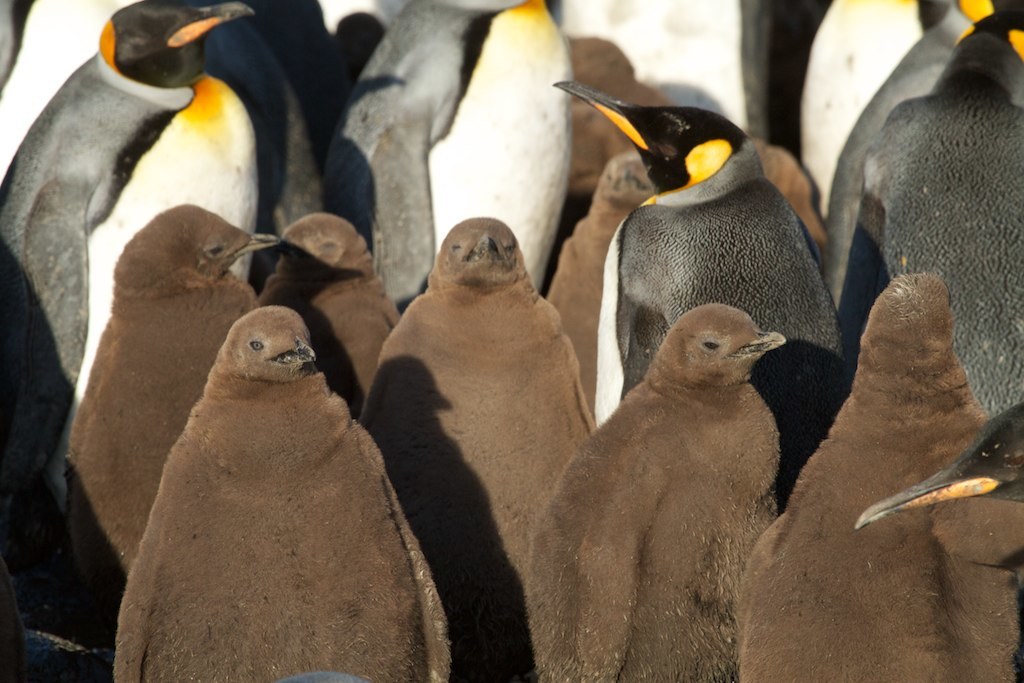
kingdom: Animalia
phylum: Chordata
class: Aves
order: Sphenisciformes
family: Spheniscidae
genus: Aptenodytes
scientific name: Aptenodytes patagonicus
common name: King penguin
